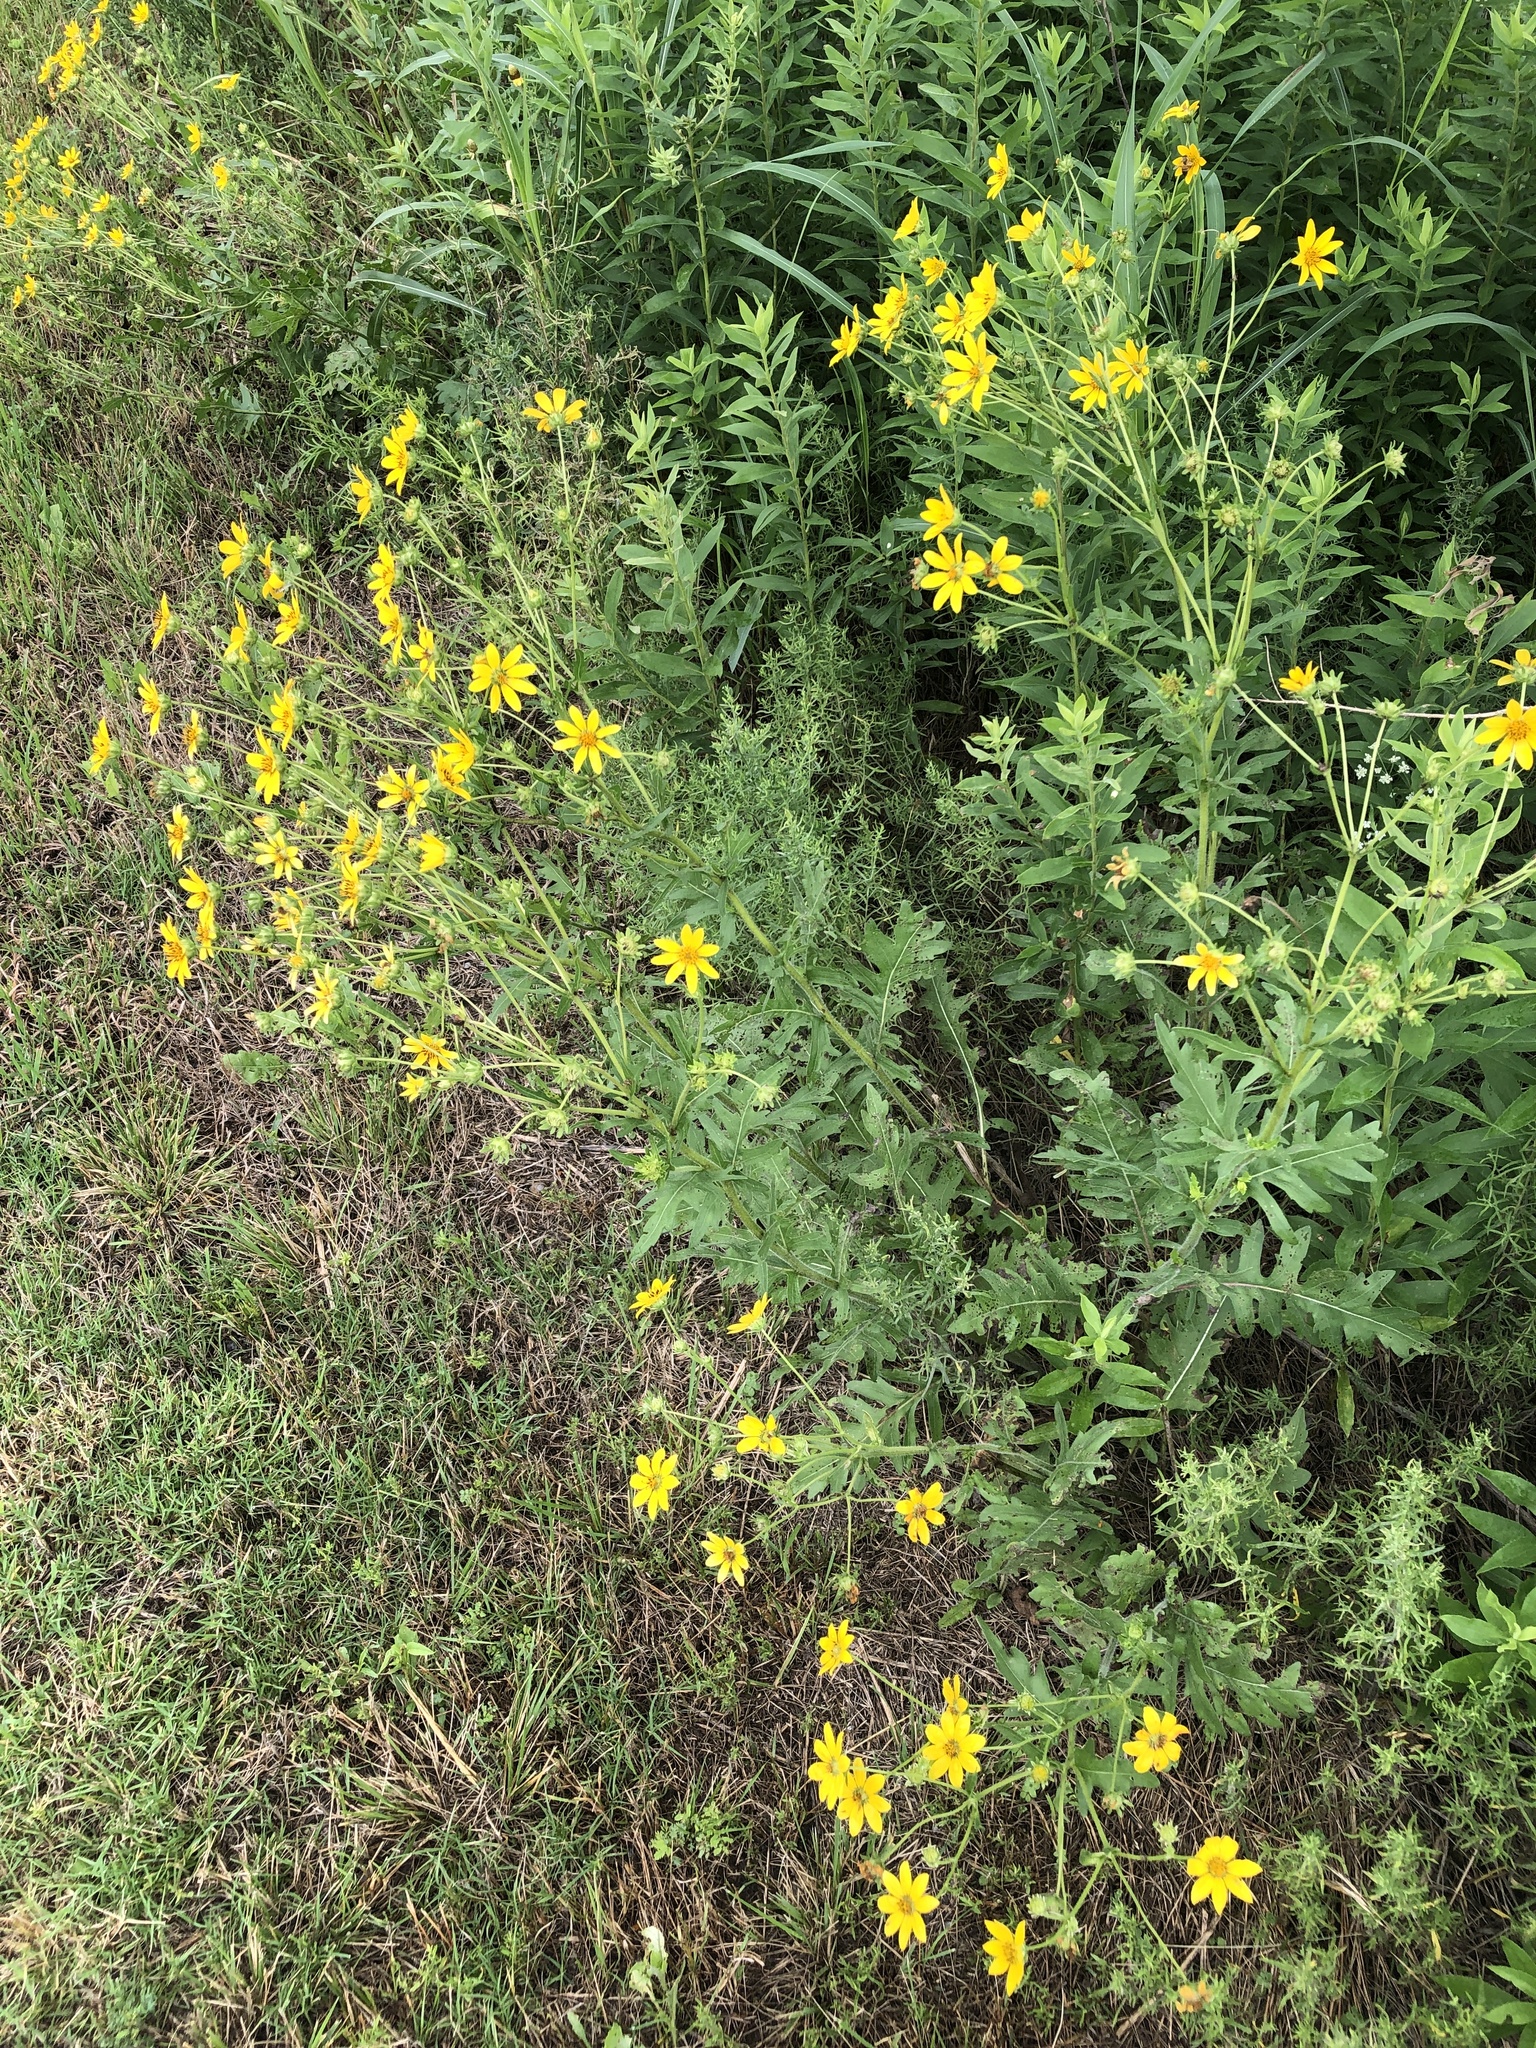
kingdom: Plantae
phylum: Tracheophyta
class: Magnoliopsida
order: Asterales
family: Asteraceae
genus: Engelmannia
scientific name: Engelmannia peristenia
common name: Engelmann's daisy
